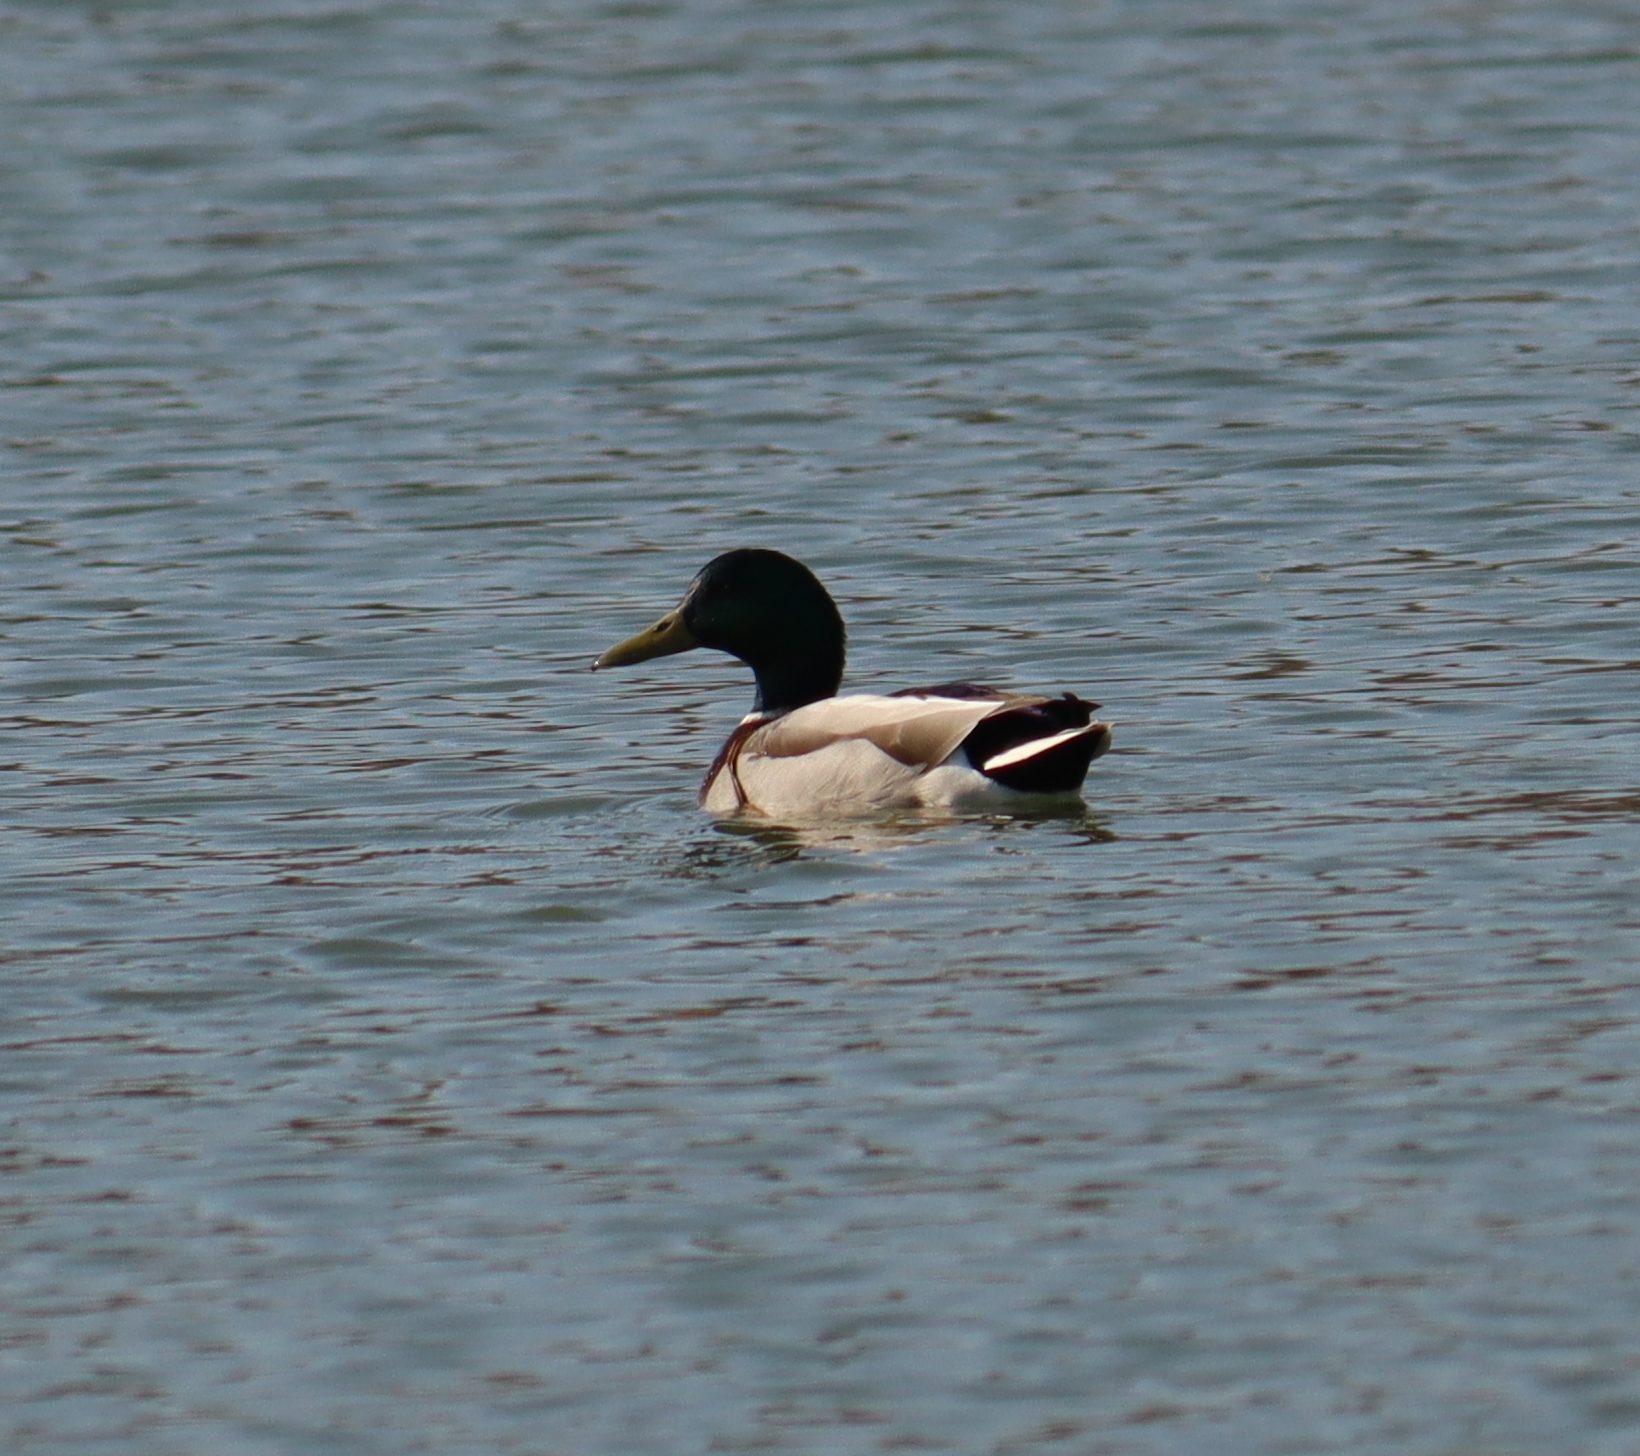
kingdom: Animalia
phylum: Chordata
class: Aves
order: Anseriformes
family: Anatidae
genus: Anas
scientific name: Anas platyrhynchos
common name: Mallard
